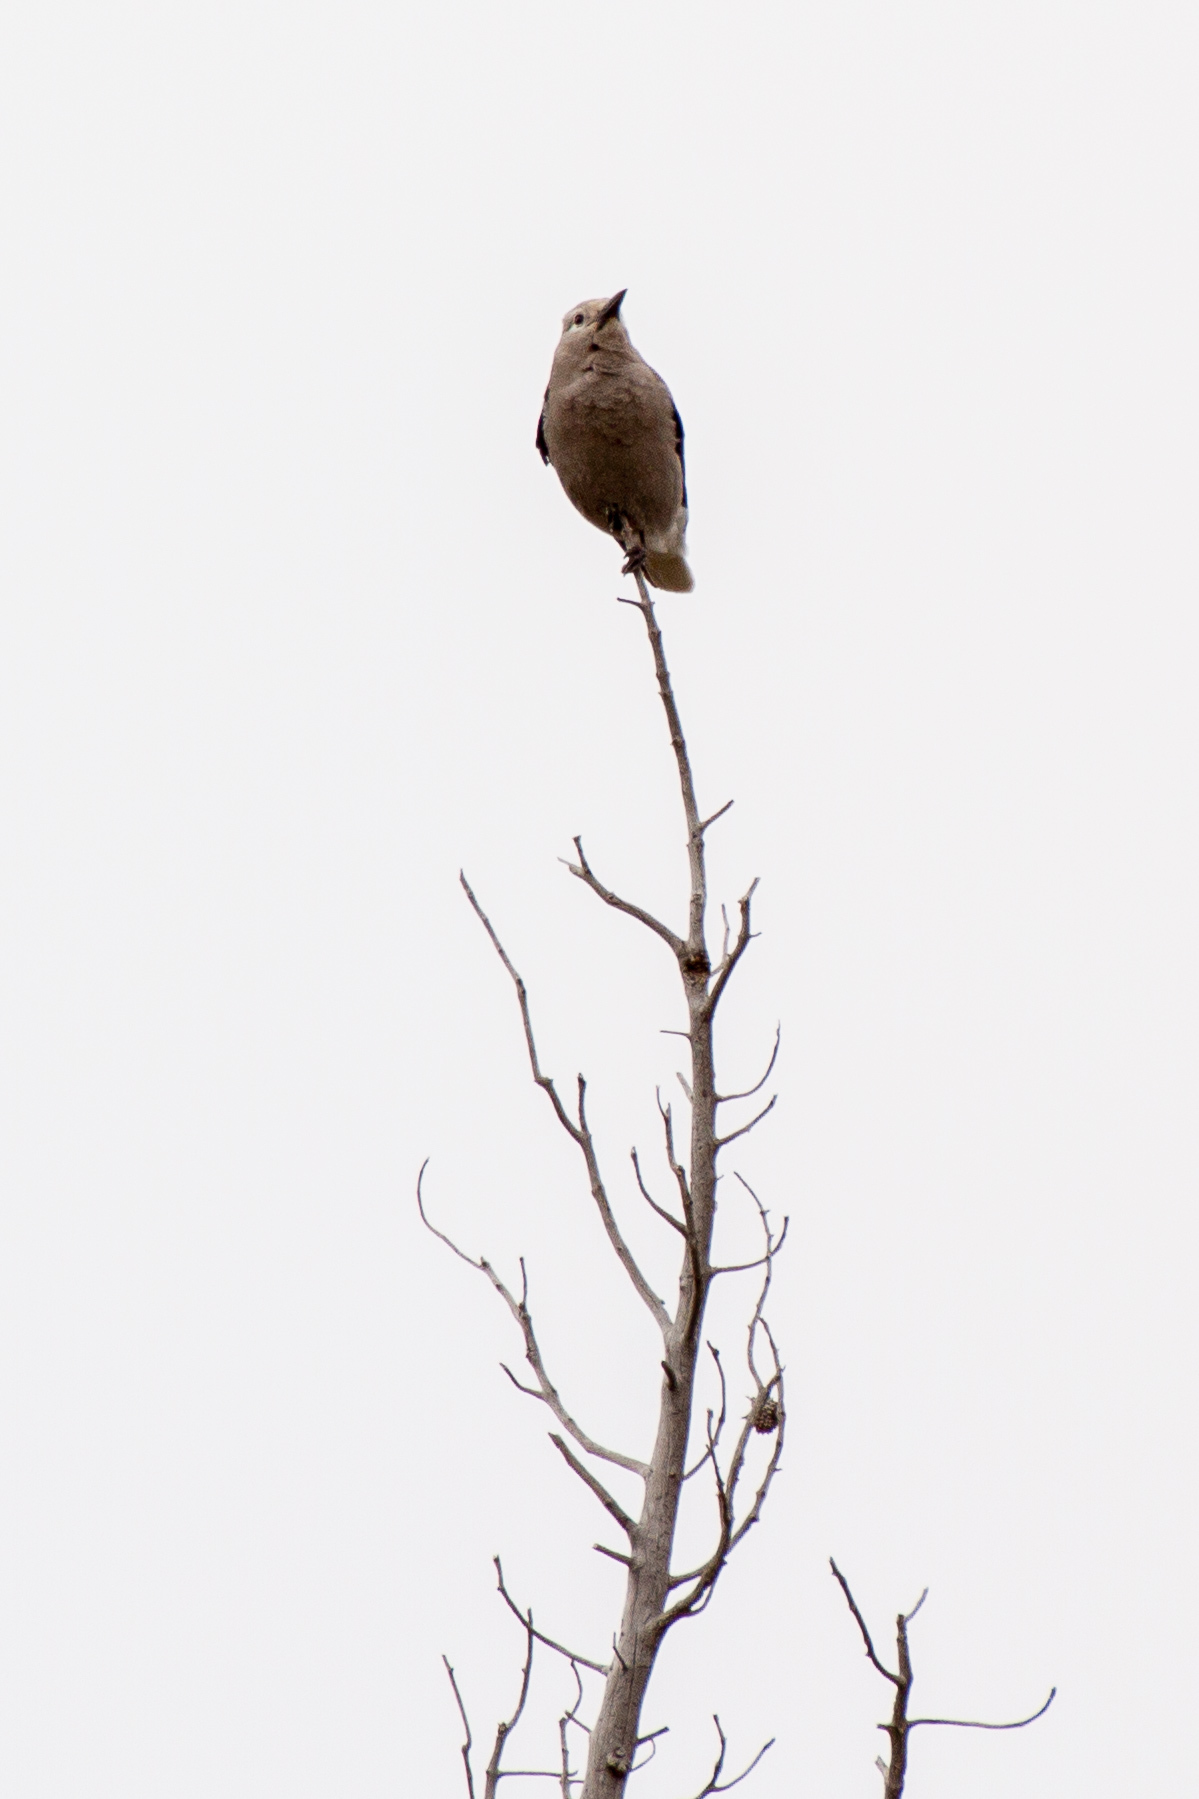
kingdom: Animalia
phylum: Chordata
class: Aves
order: Passeriformes
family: Corvidae
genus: Nucifraga
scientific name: Nucifraga columbiana
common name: Clark's nutcracker
